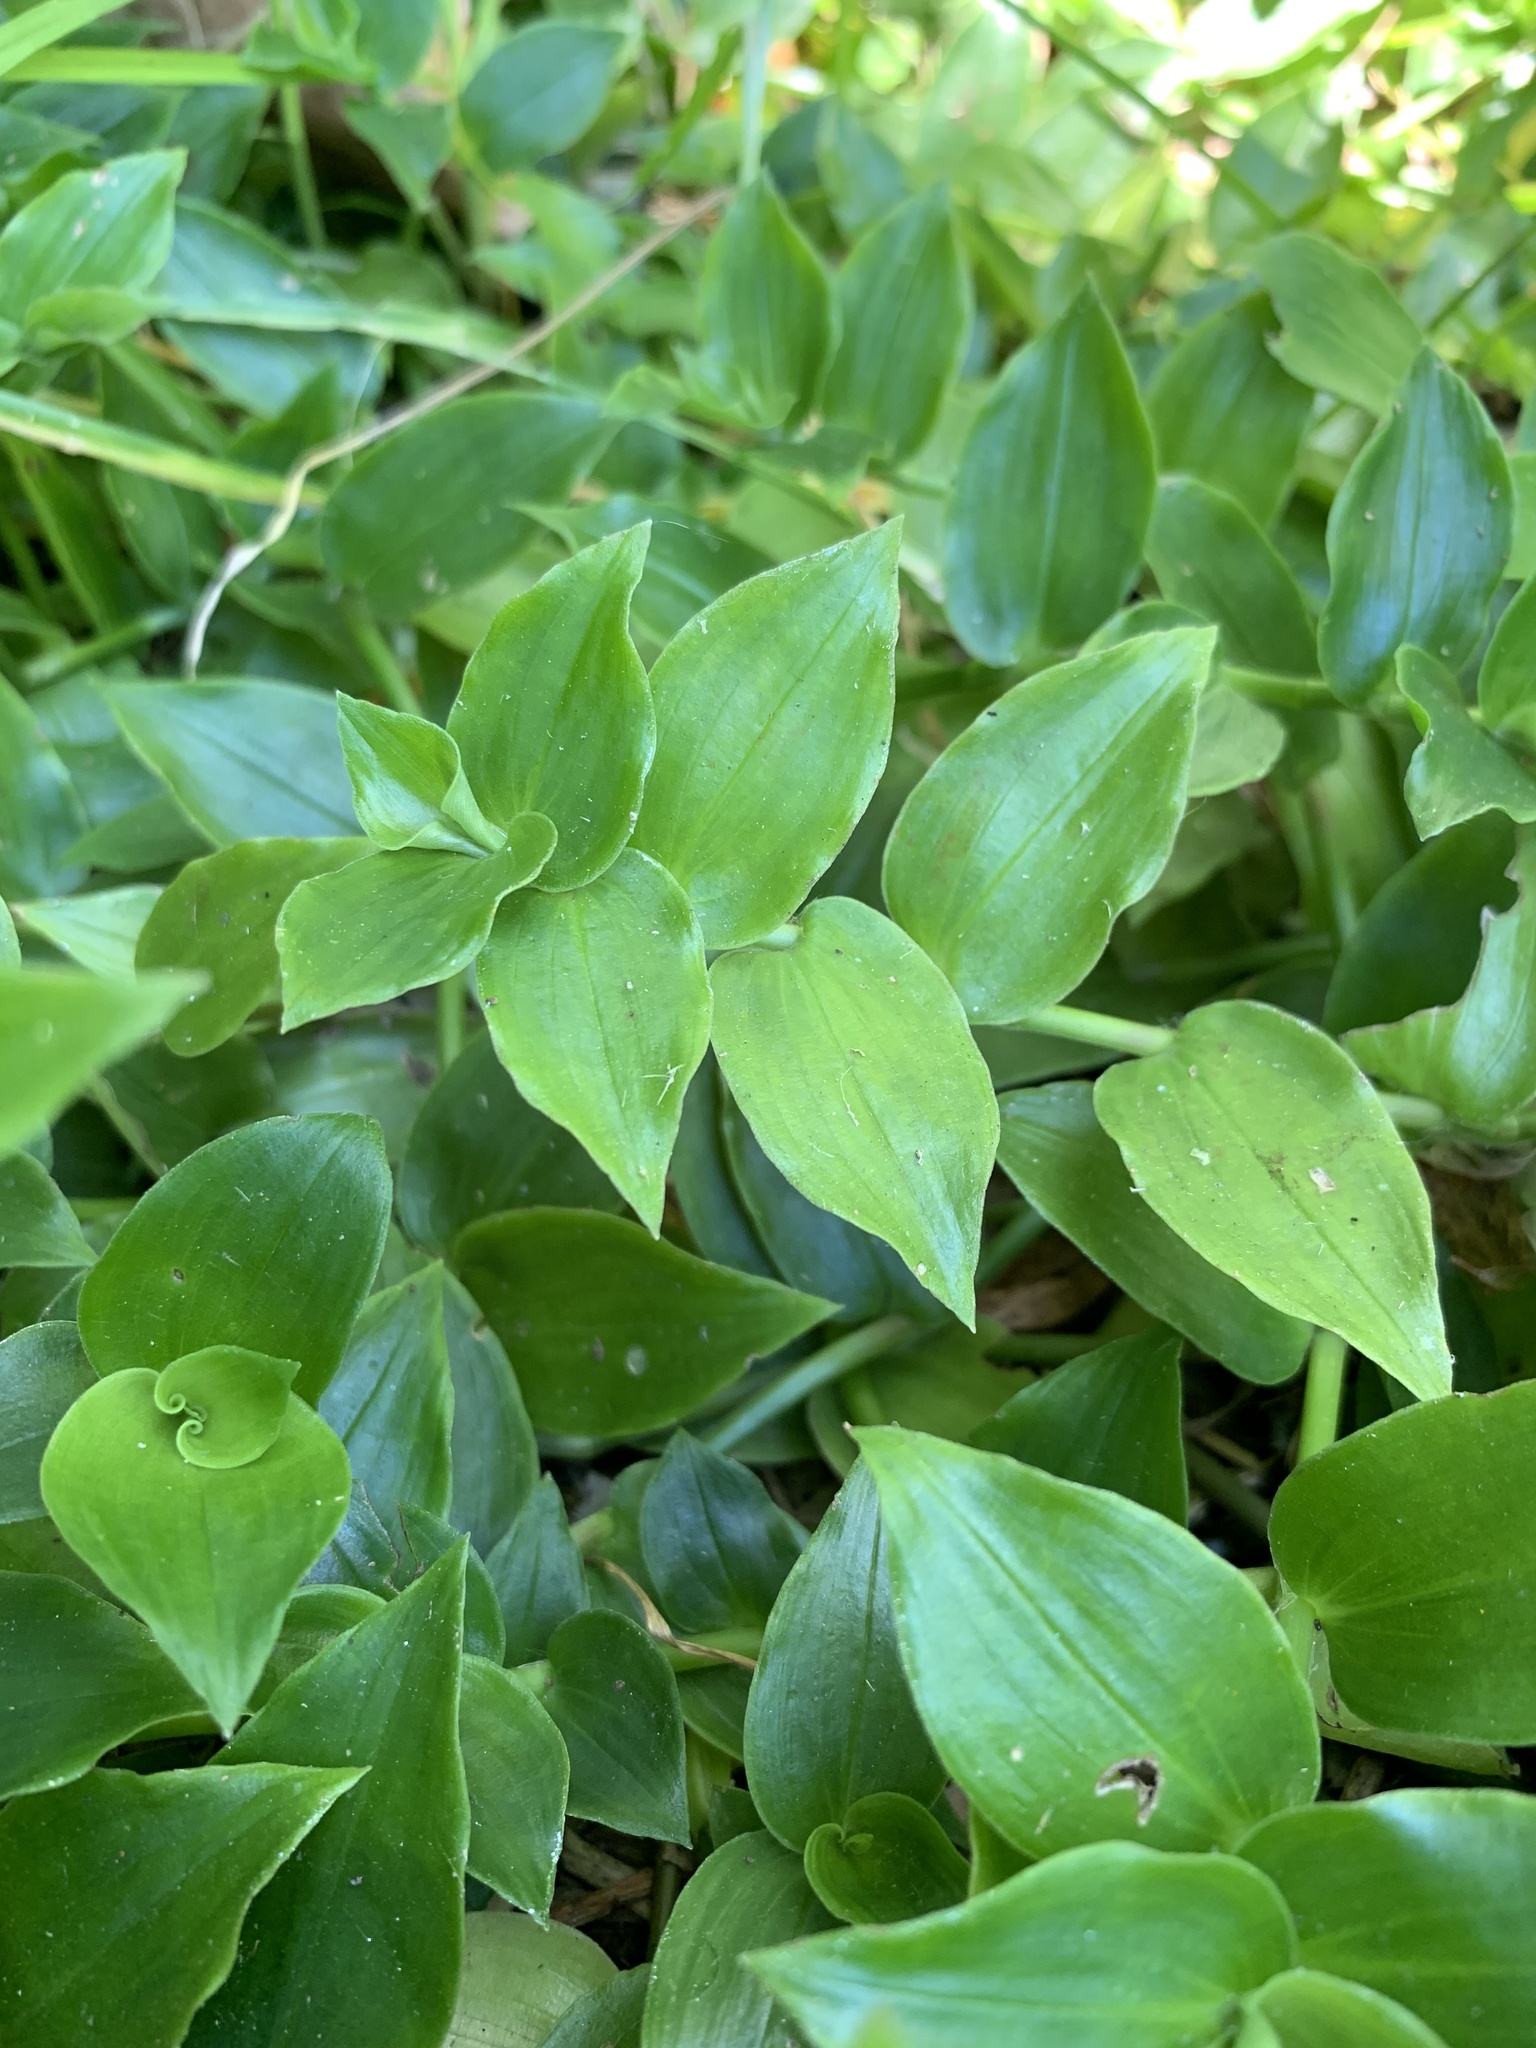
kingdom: Plantae
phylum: Tracheophyta
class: Liliopsida
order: Commelinales
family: Commelinaceae
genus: Tradescantia
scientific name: Tradescantia fluminensis
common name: Wandering-jew
